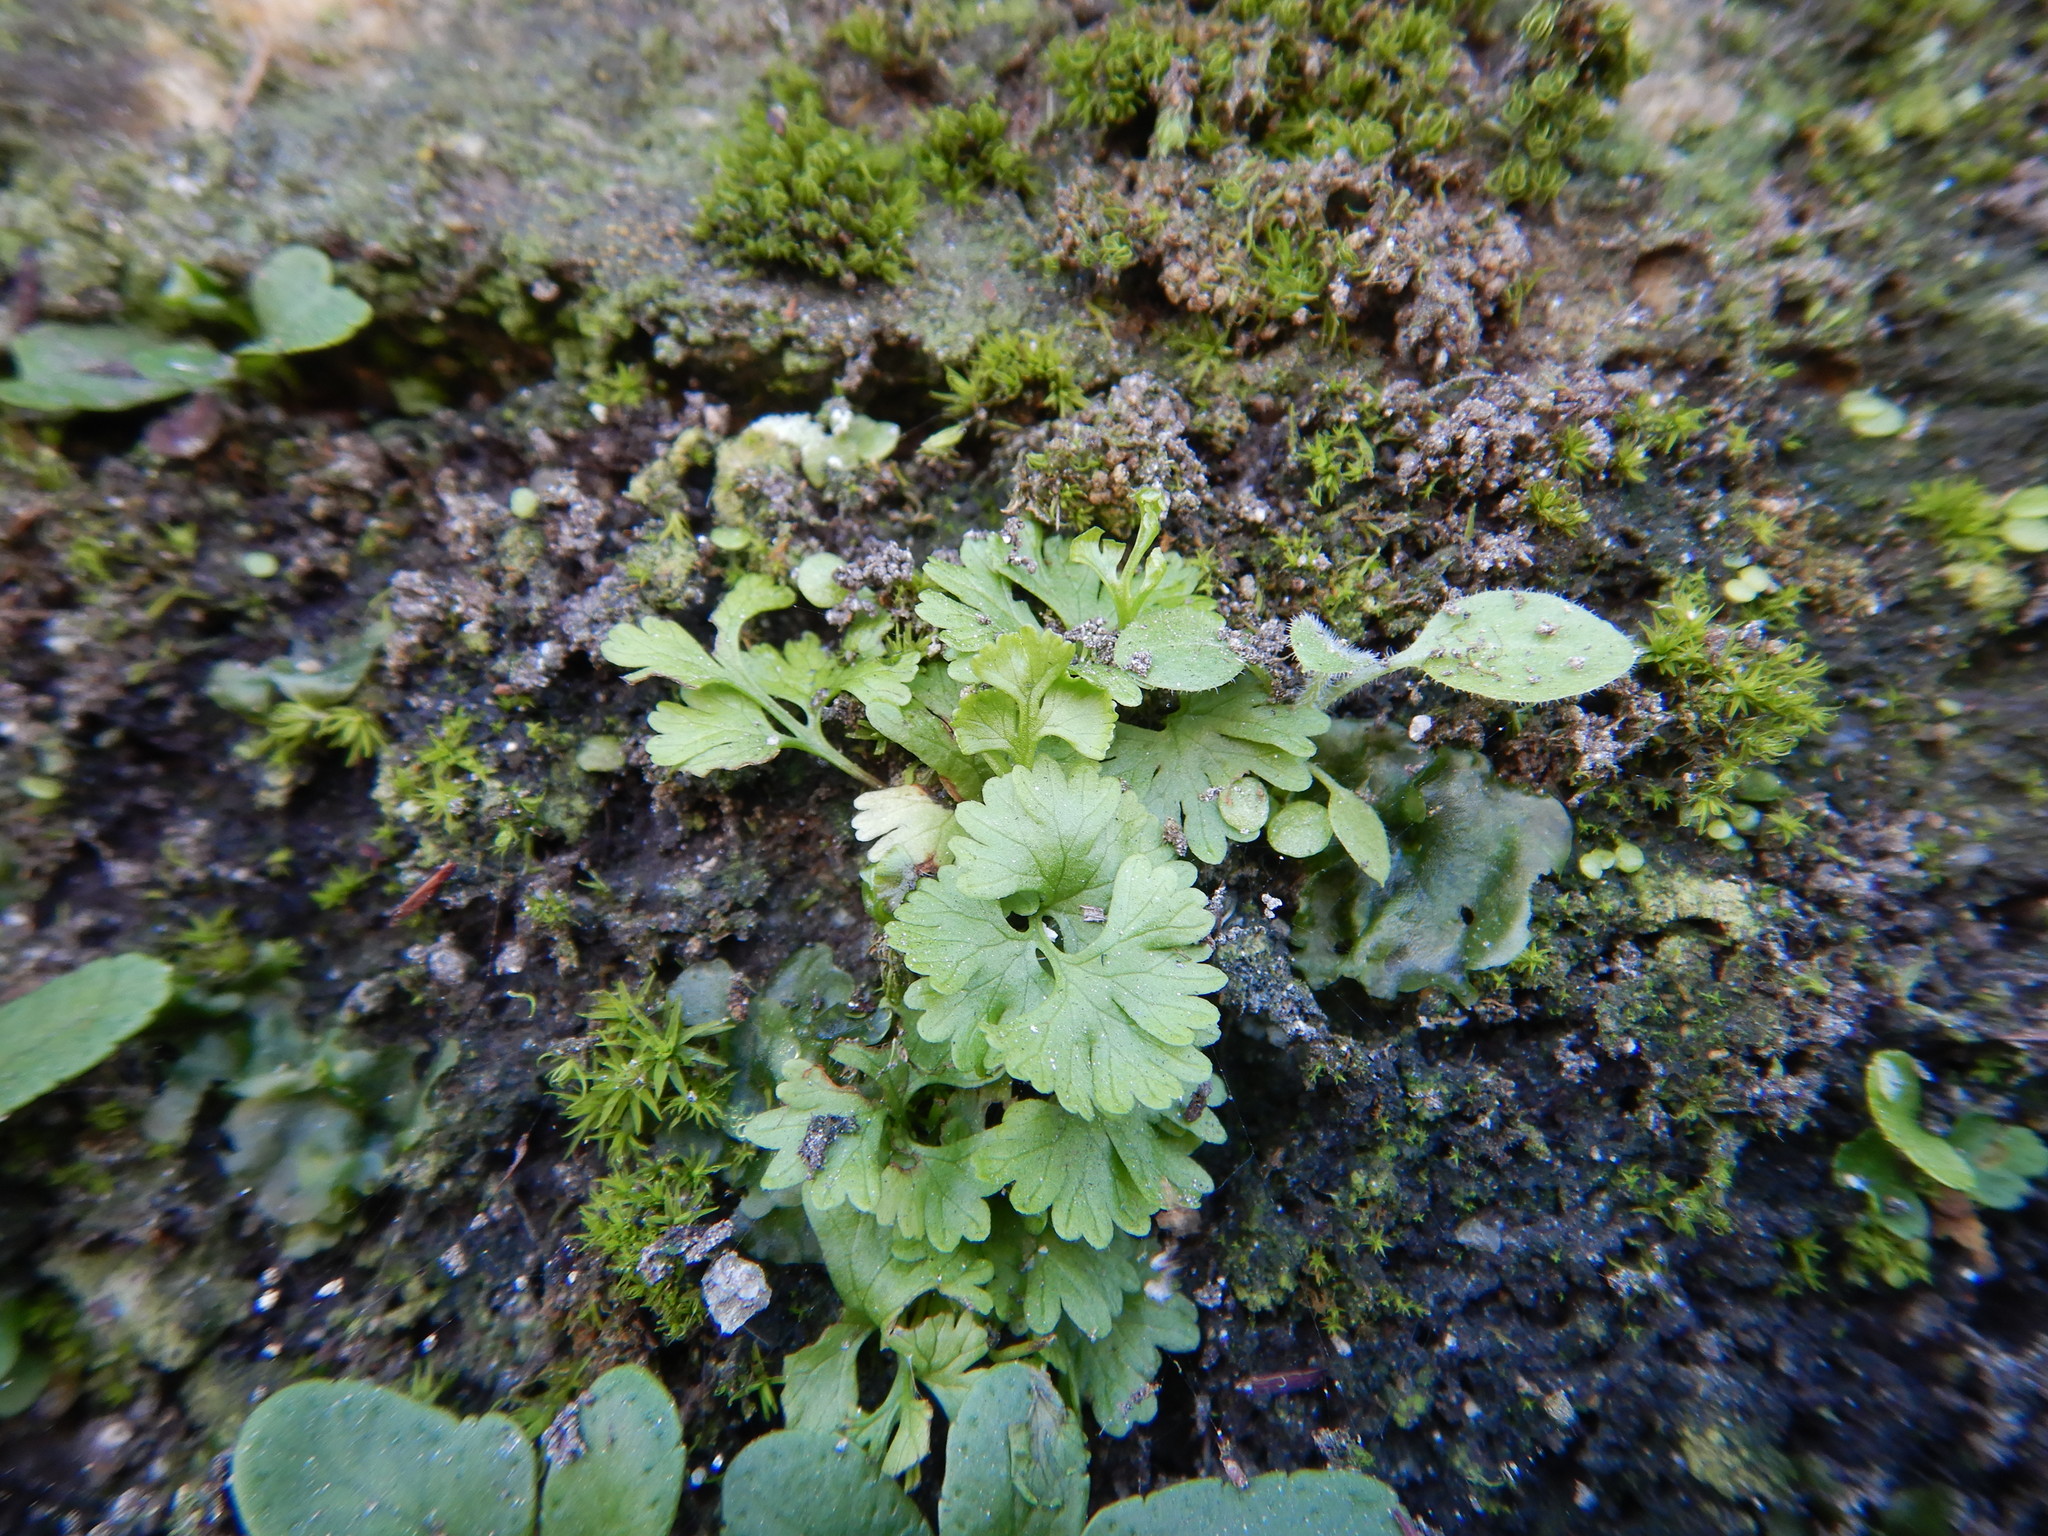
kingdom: Plantae
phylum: Tracheophyta
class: Polypodiopsida
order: Polypodiales
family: Pteridaceae
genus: Anogramma
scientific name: Anogramma leptophylla
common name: Jersey fern
